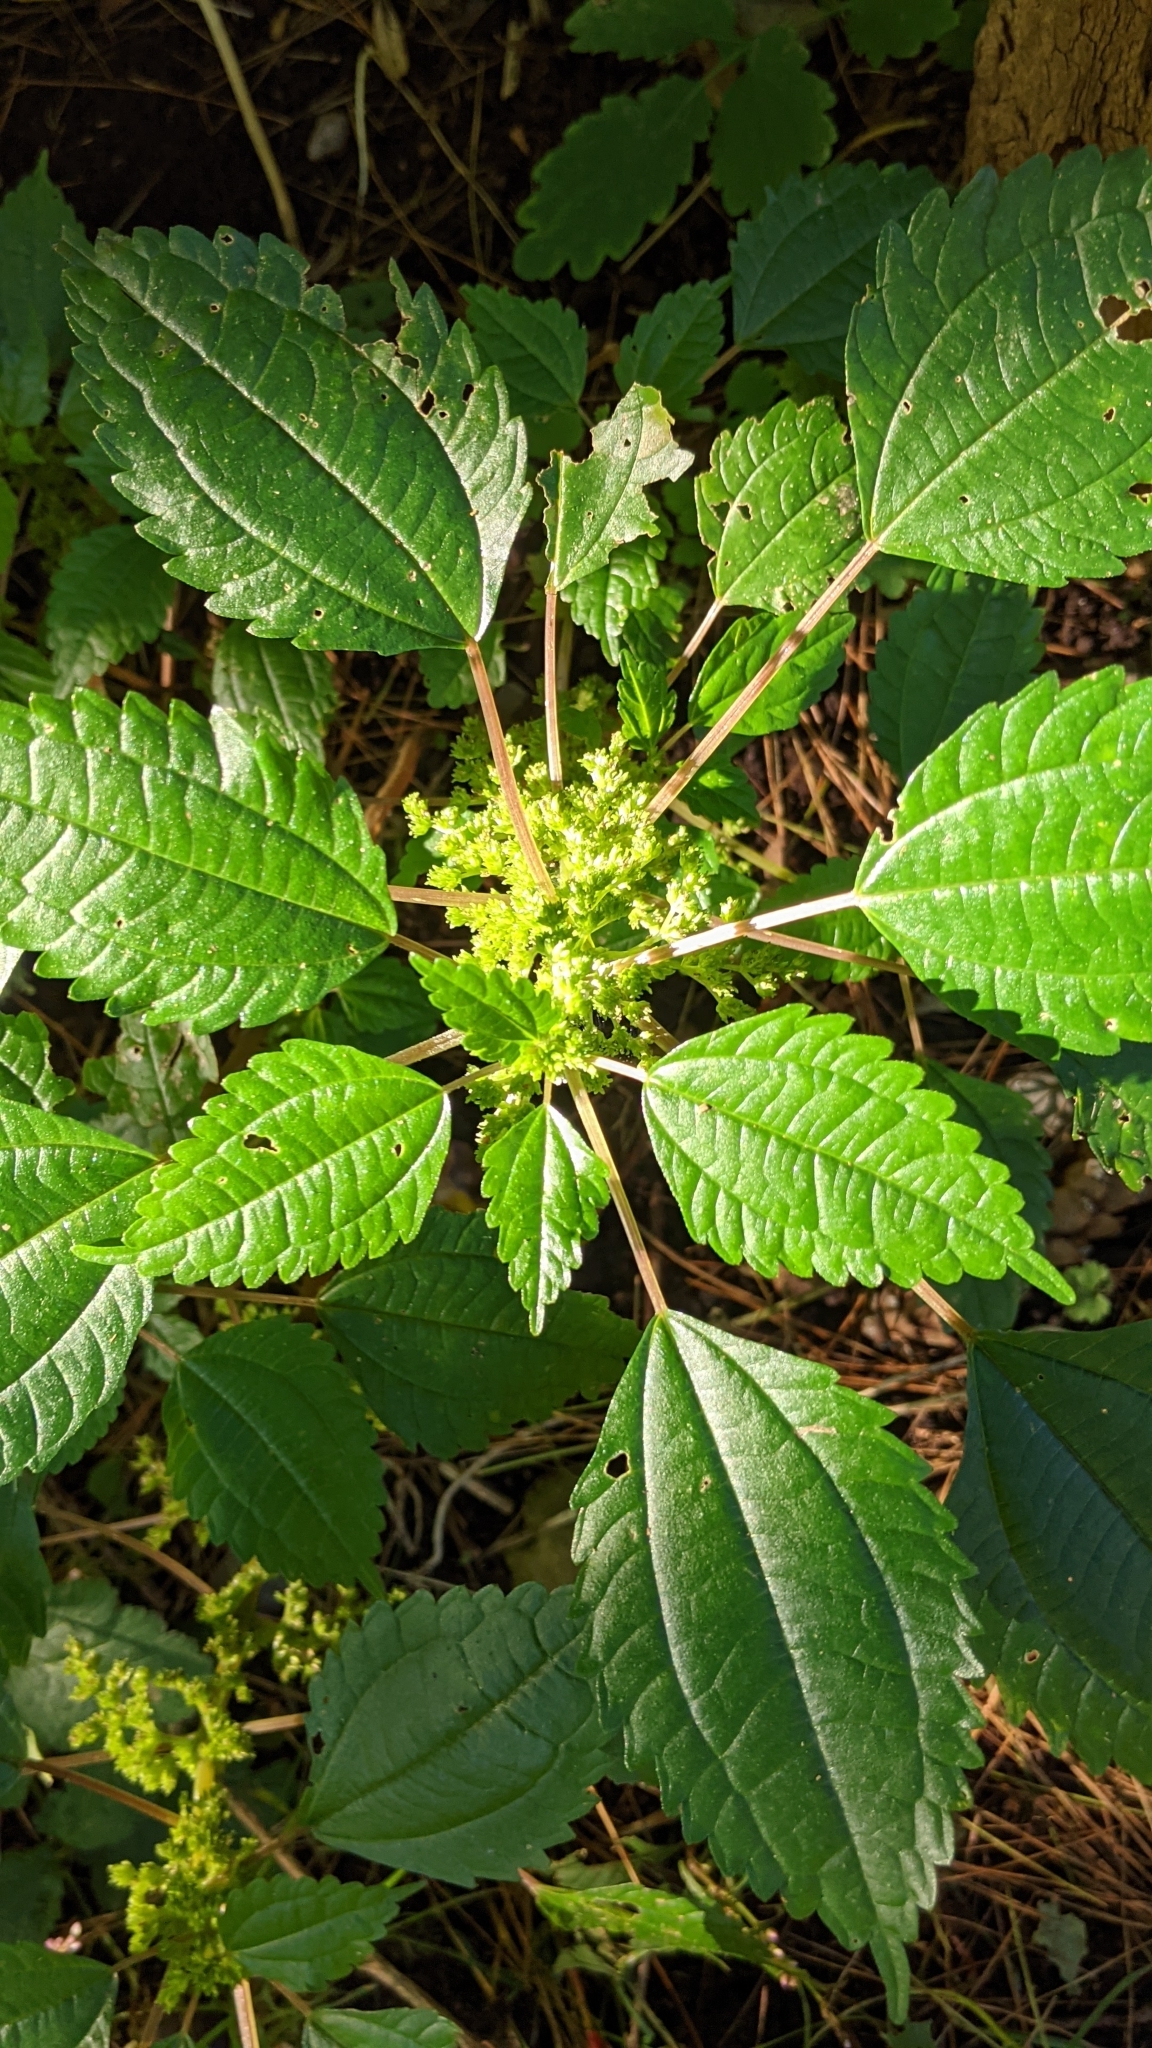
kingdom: Plantae
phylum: Tracheophyta
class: Magnoliopsida
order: Rosales
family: Urticaceae
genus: Pilea
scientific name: Pilea pumila
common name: Clearweed
